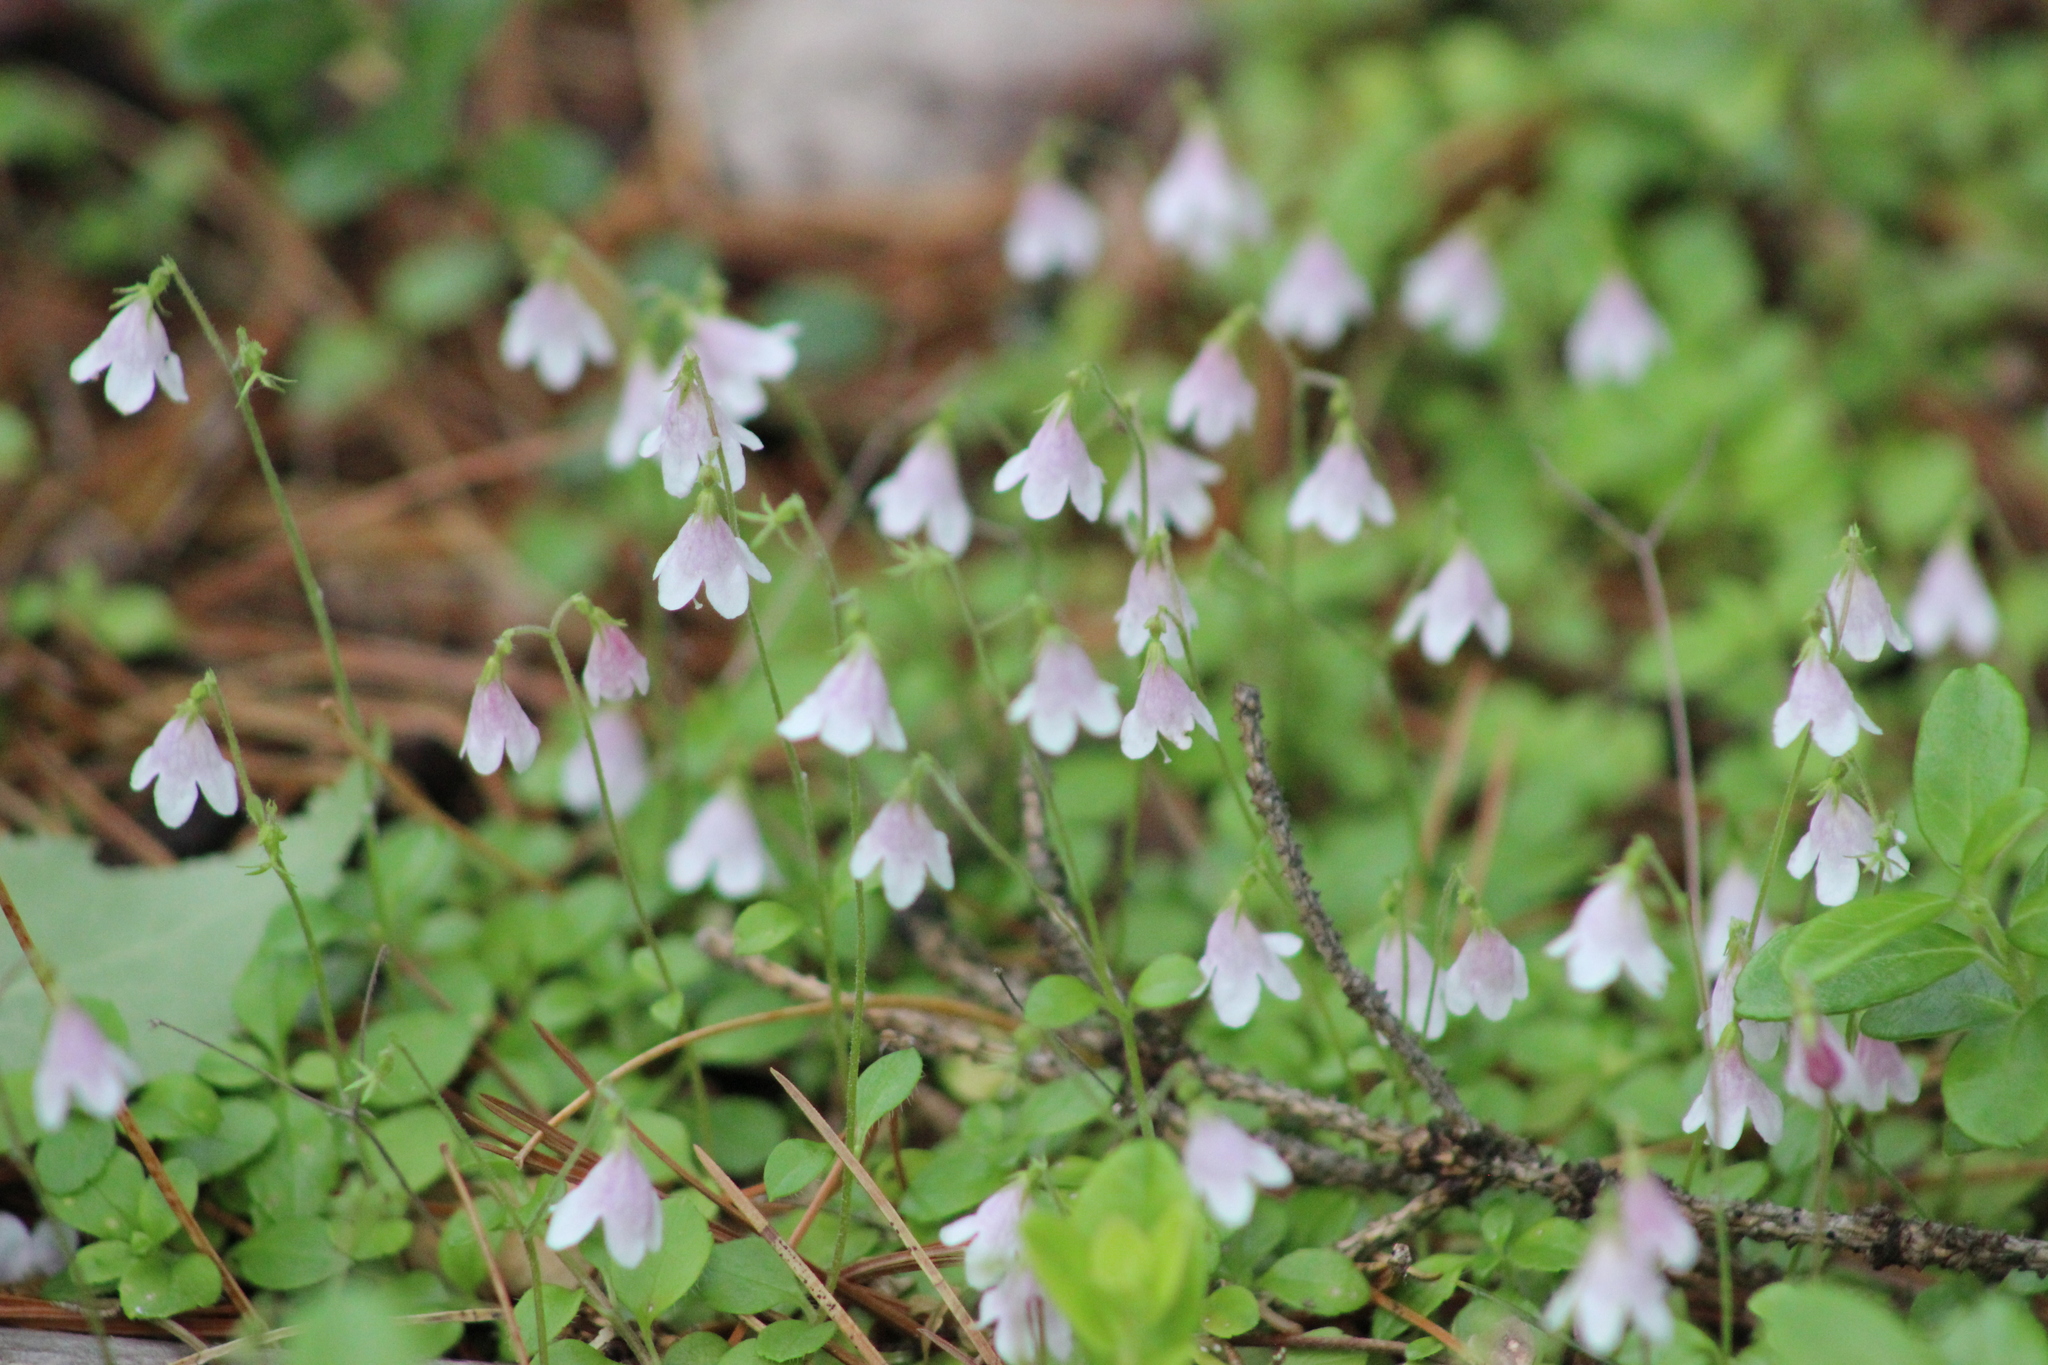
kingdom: Plantae
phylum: Tracheophyta
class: Magnoliopsida
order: Dipsacales
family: Caprifoliaceae
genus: Linnaea
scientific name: Linnaea borealis
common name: Twinflower
